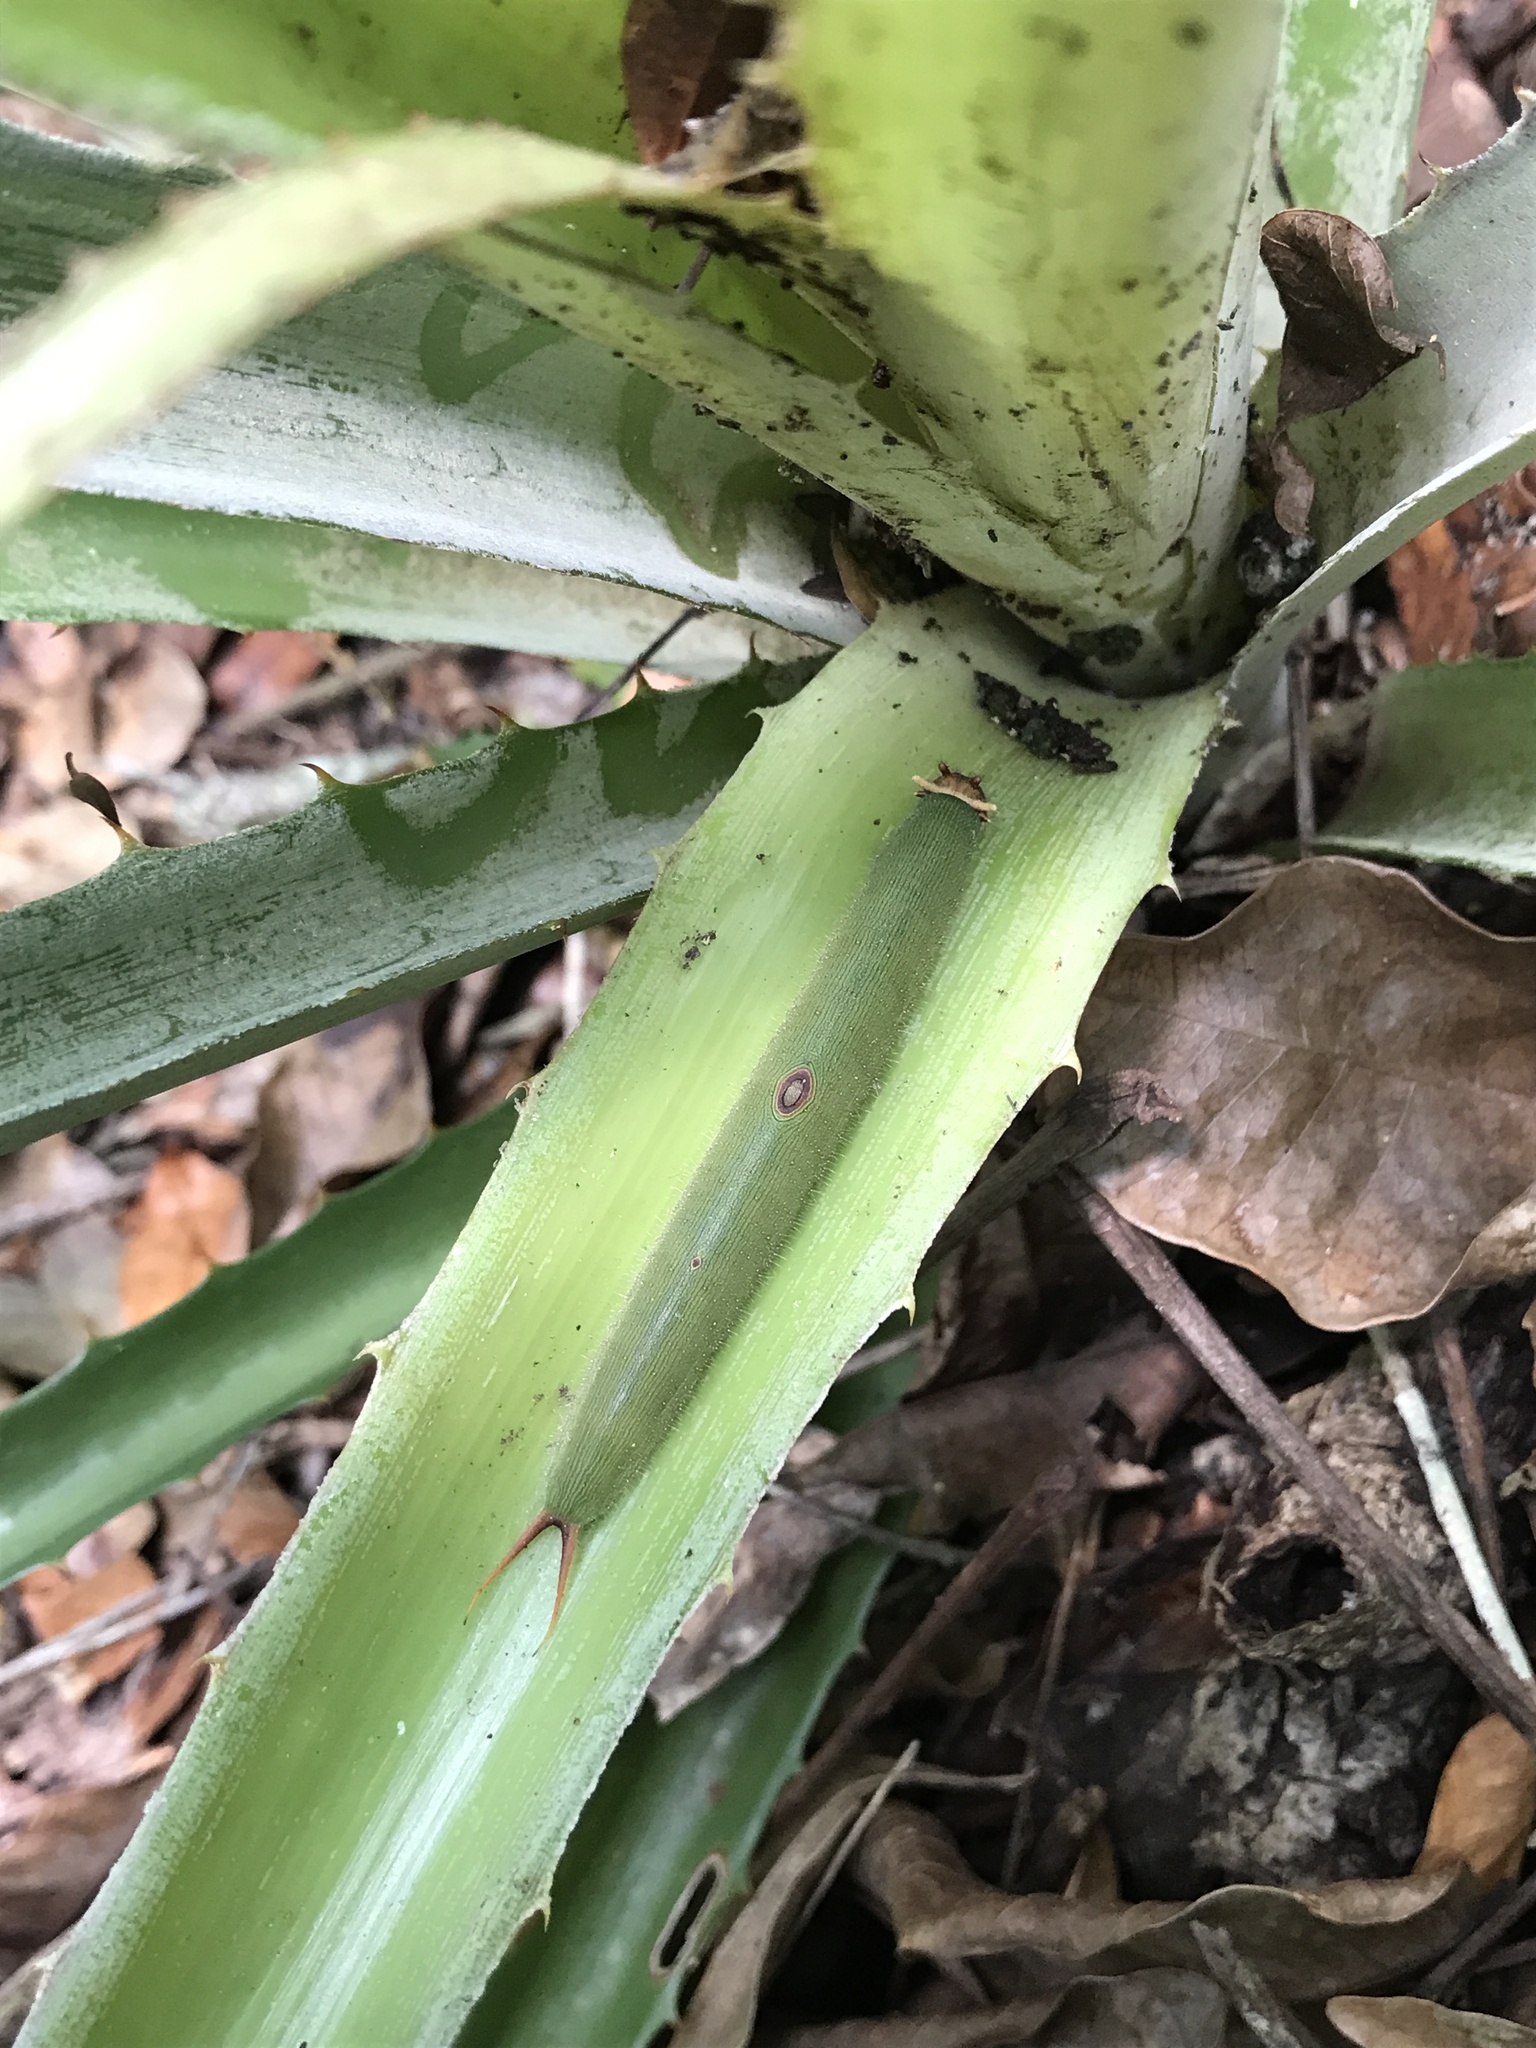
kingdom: Animalia
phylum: Arthropoda
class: Insecta
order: Lepidoptera
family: Nymphalidae
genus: Dynastor
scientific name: Dynastor darius
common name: Daring owl-butterfly
